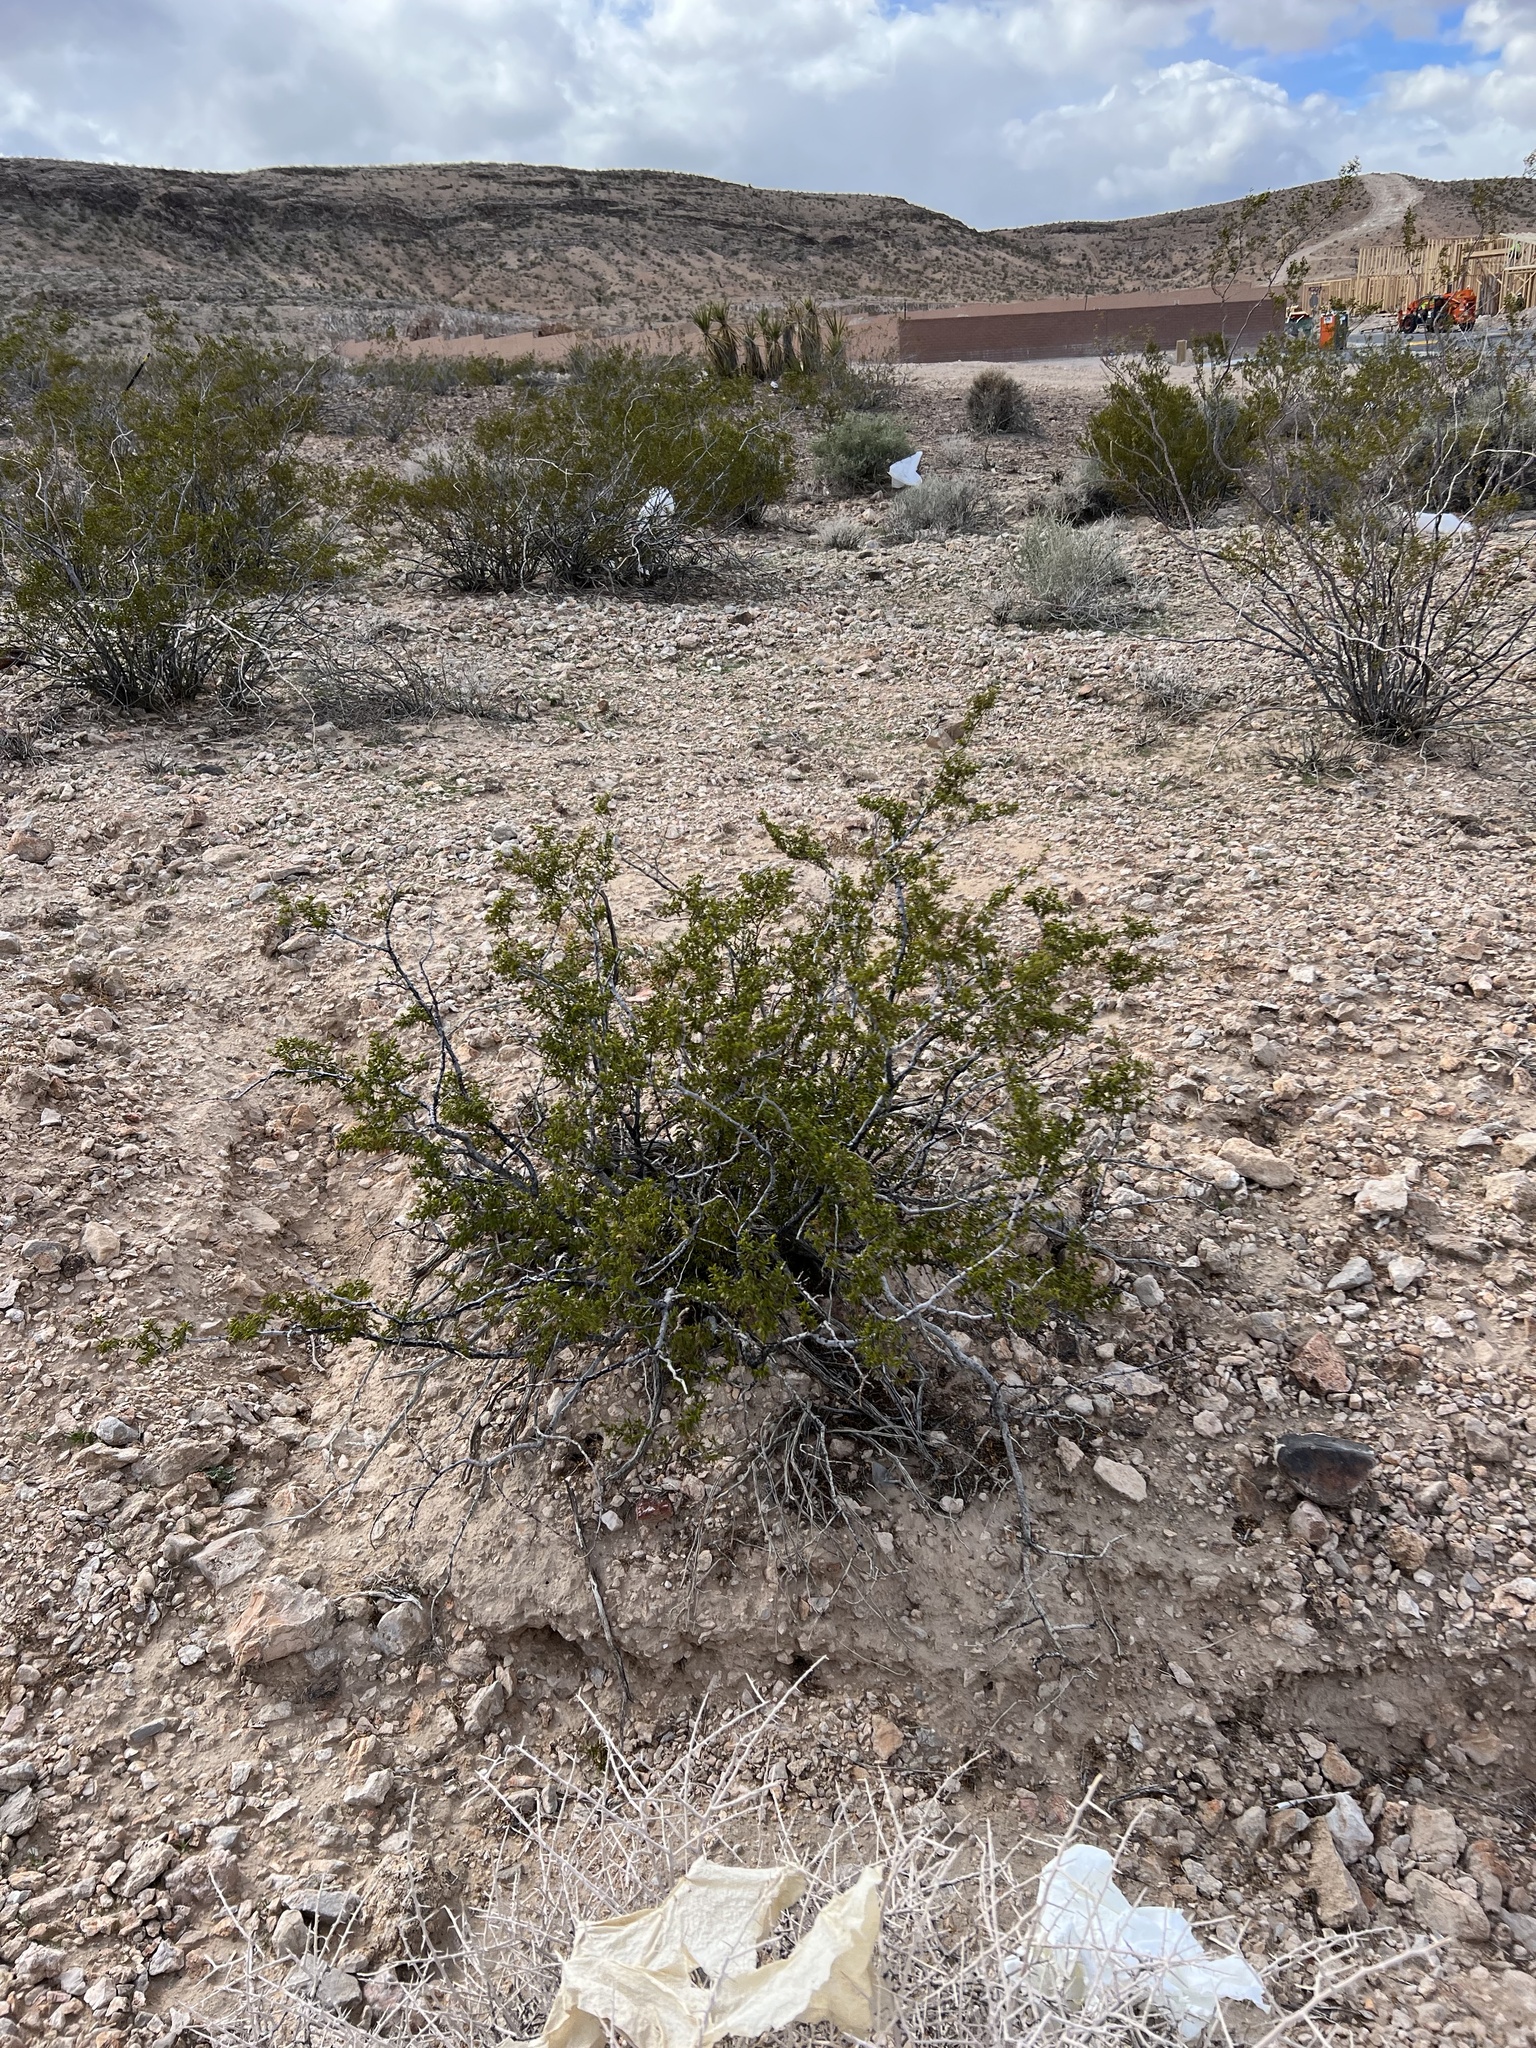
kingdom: Plantae
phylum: Tracheophyta
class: Magnoliopsida
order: Zygophyllales
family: Zygophyllaceae
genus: Larrea
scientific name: Larrea tridentata
